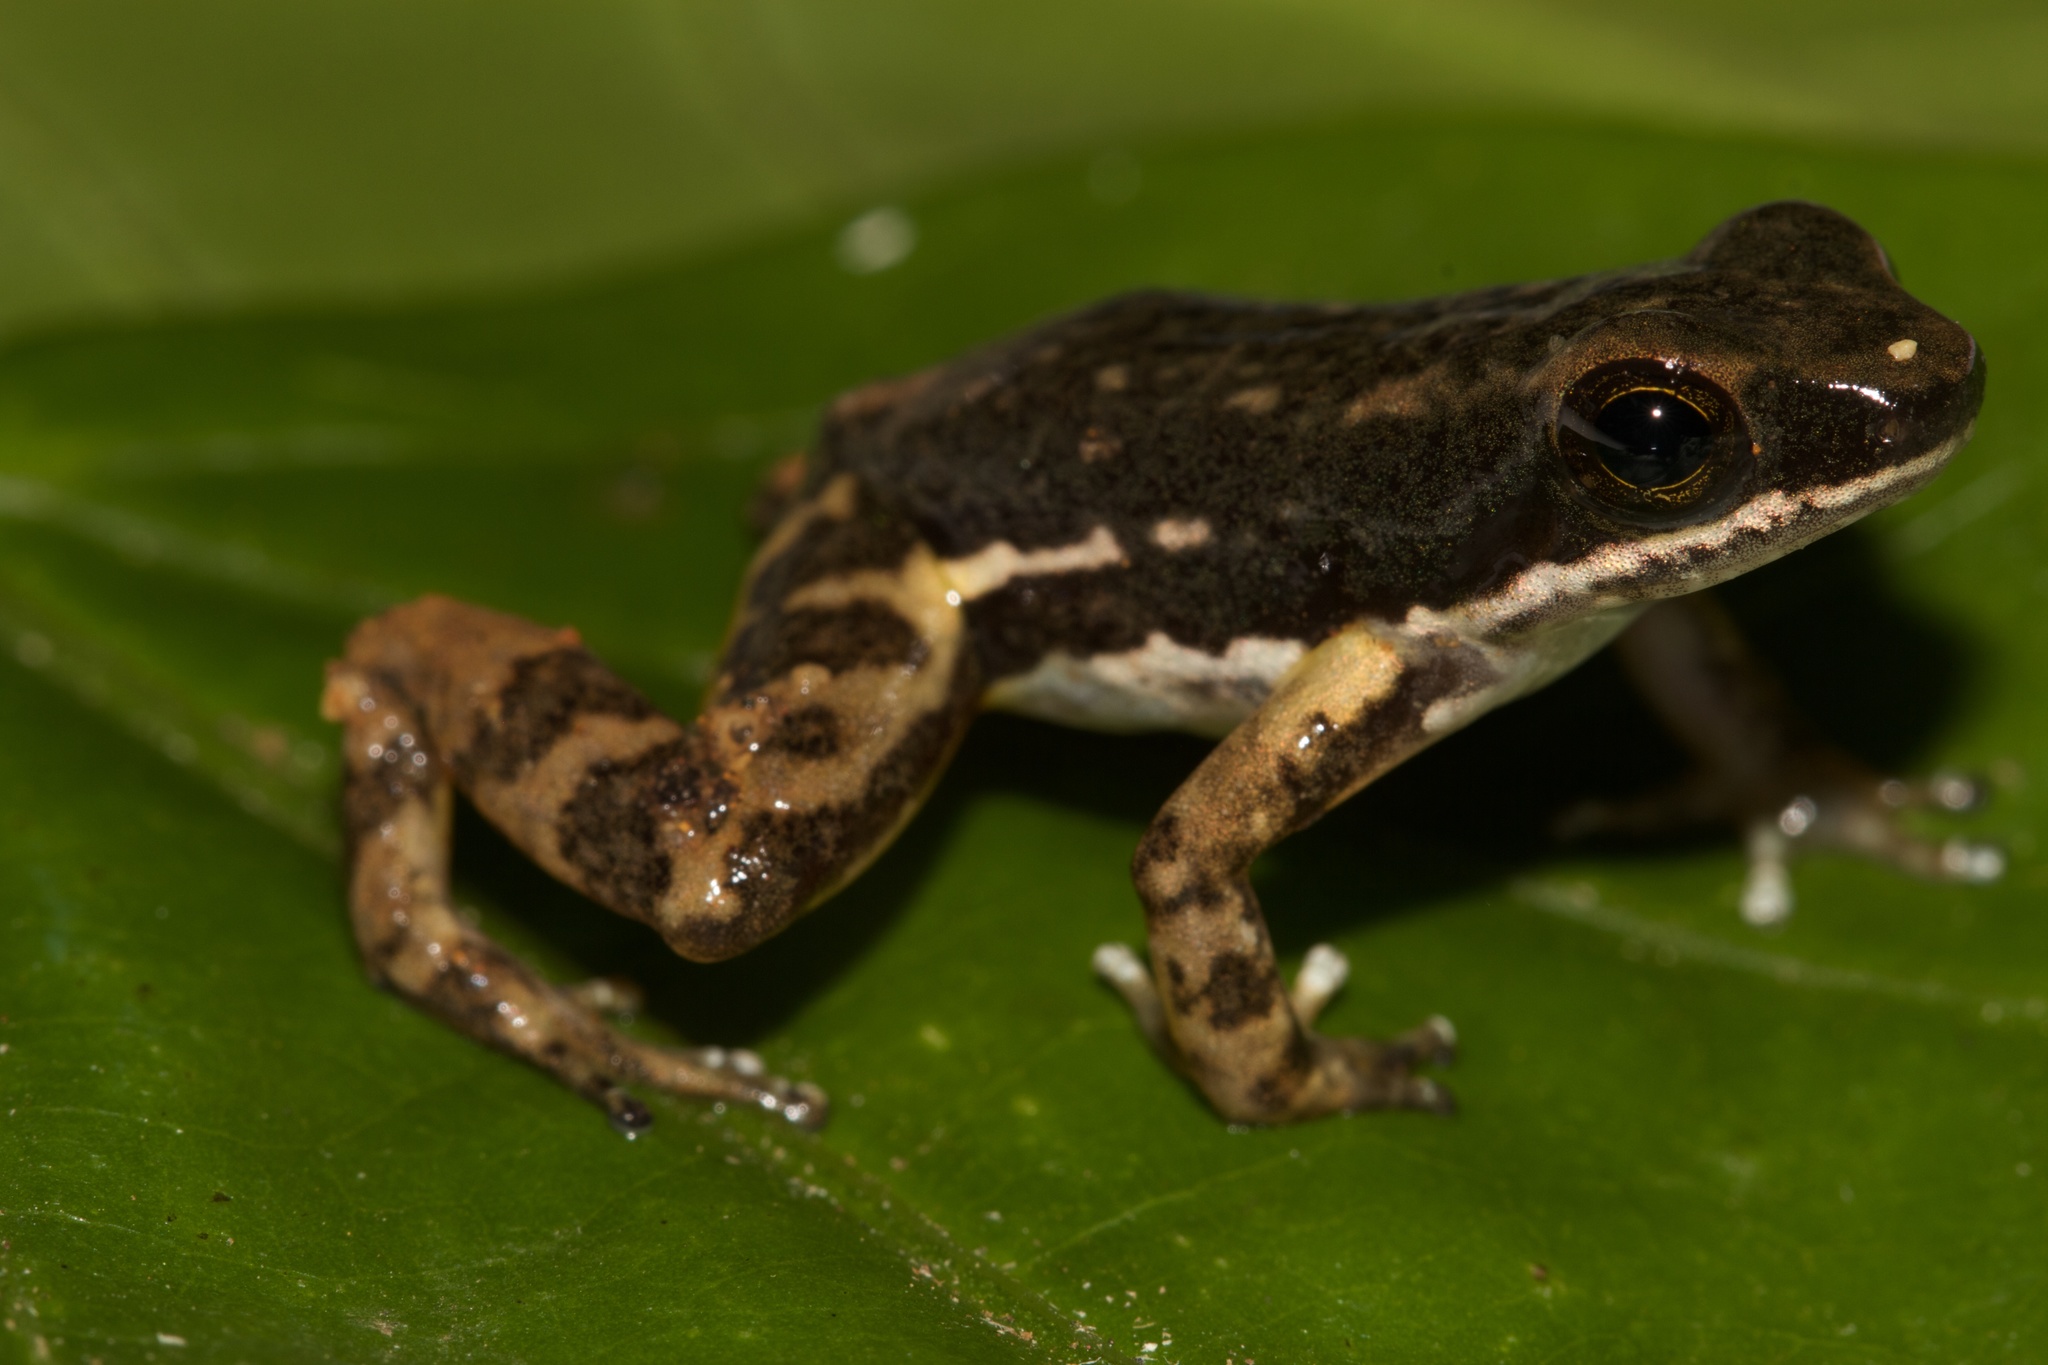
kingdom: Animalia
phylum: Chordata
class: Amphibia
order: Anura
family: Dendrobatidae
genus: Colostethus
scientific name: Colostethus panamansis
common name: Panama rocket frog
